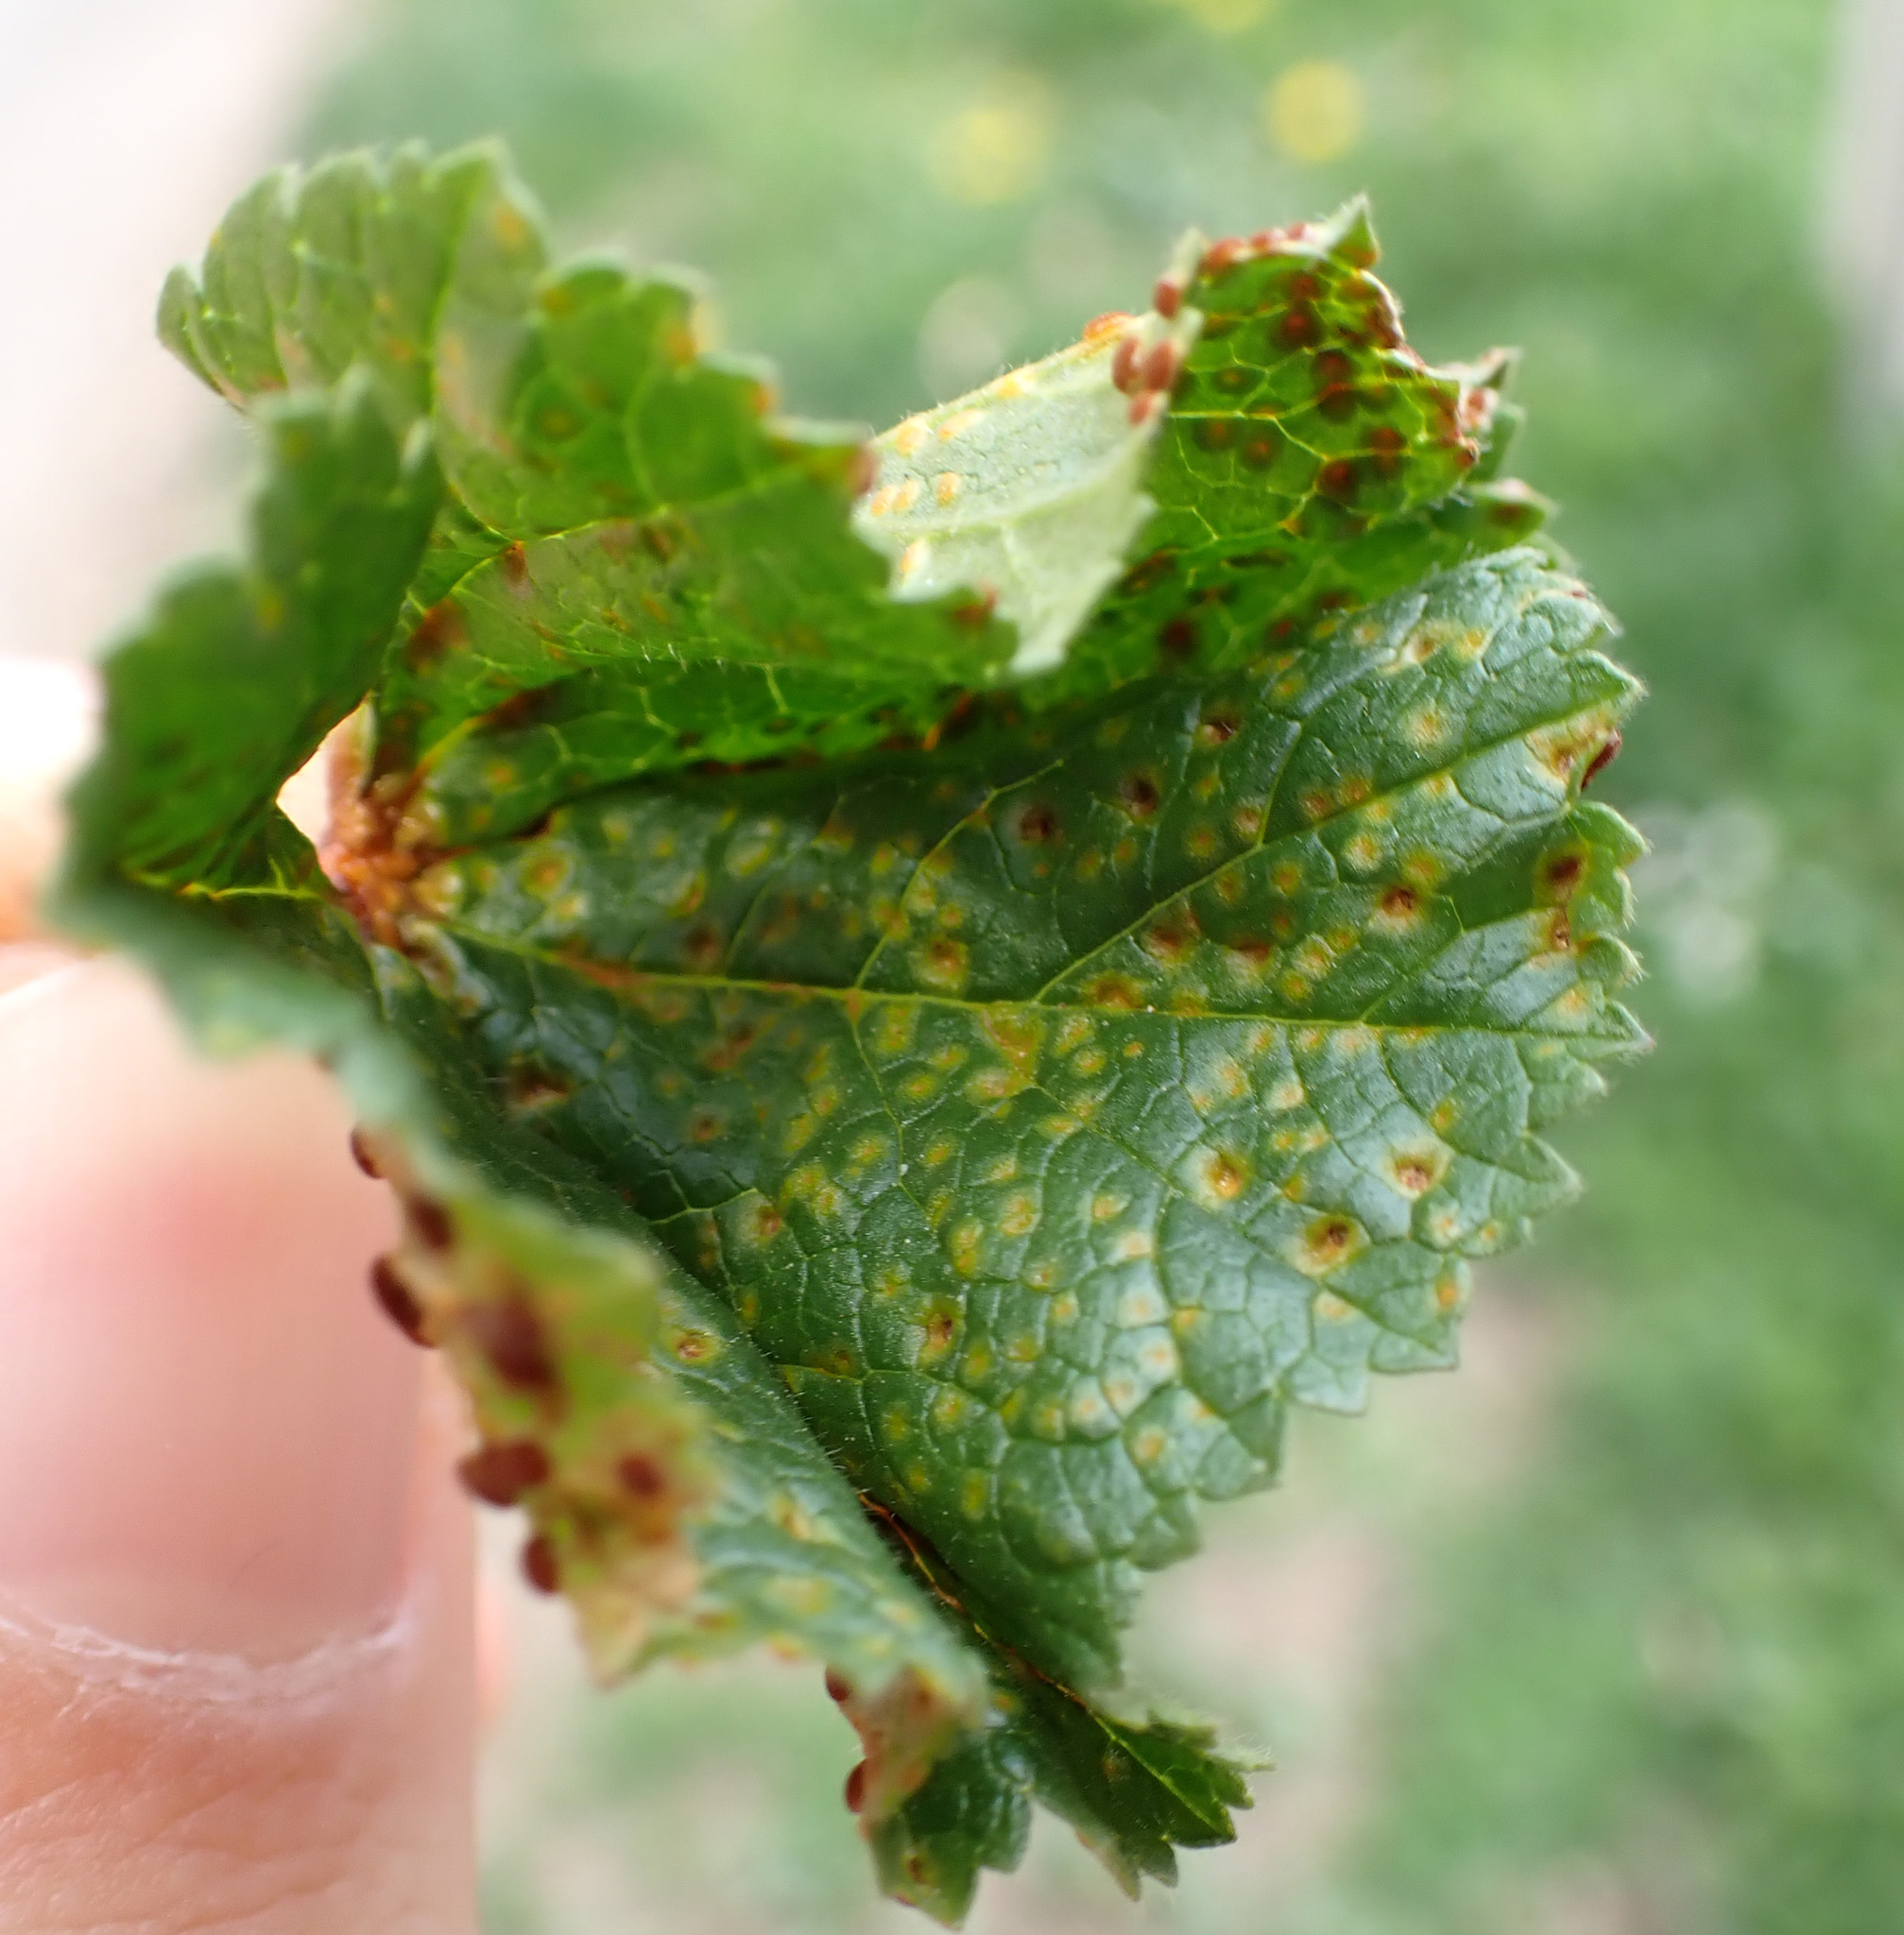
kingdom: Fungi
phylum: Basidiomycota
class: Pucciniomycetes
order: Pucciniales
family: Pucciniaceae
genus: Puccinia
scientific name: Puccinia malvacearum
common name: Hollyhock rust
